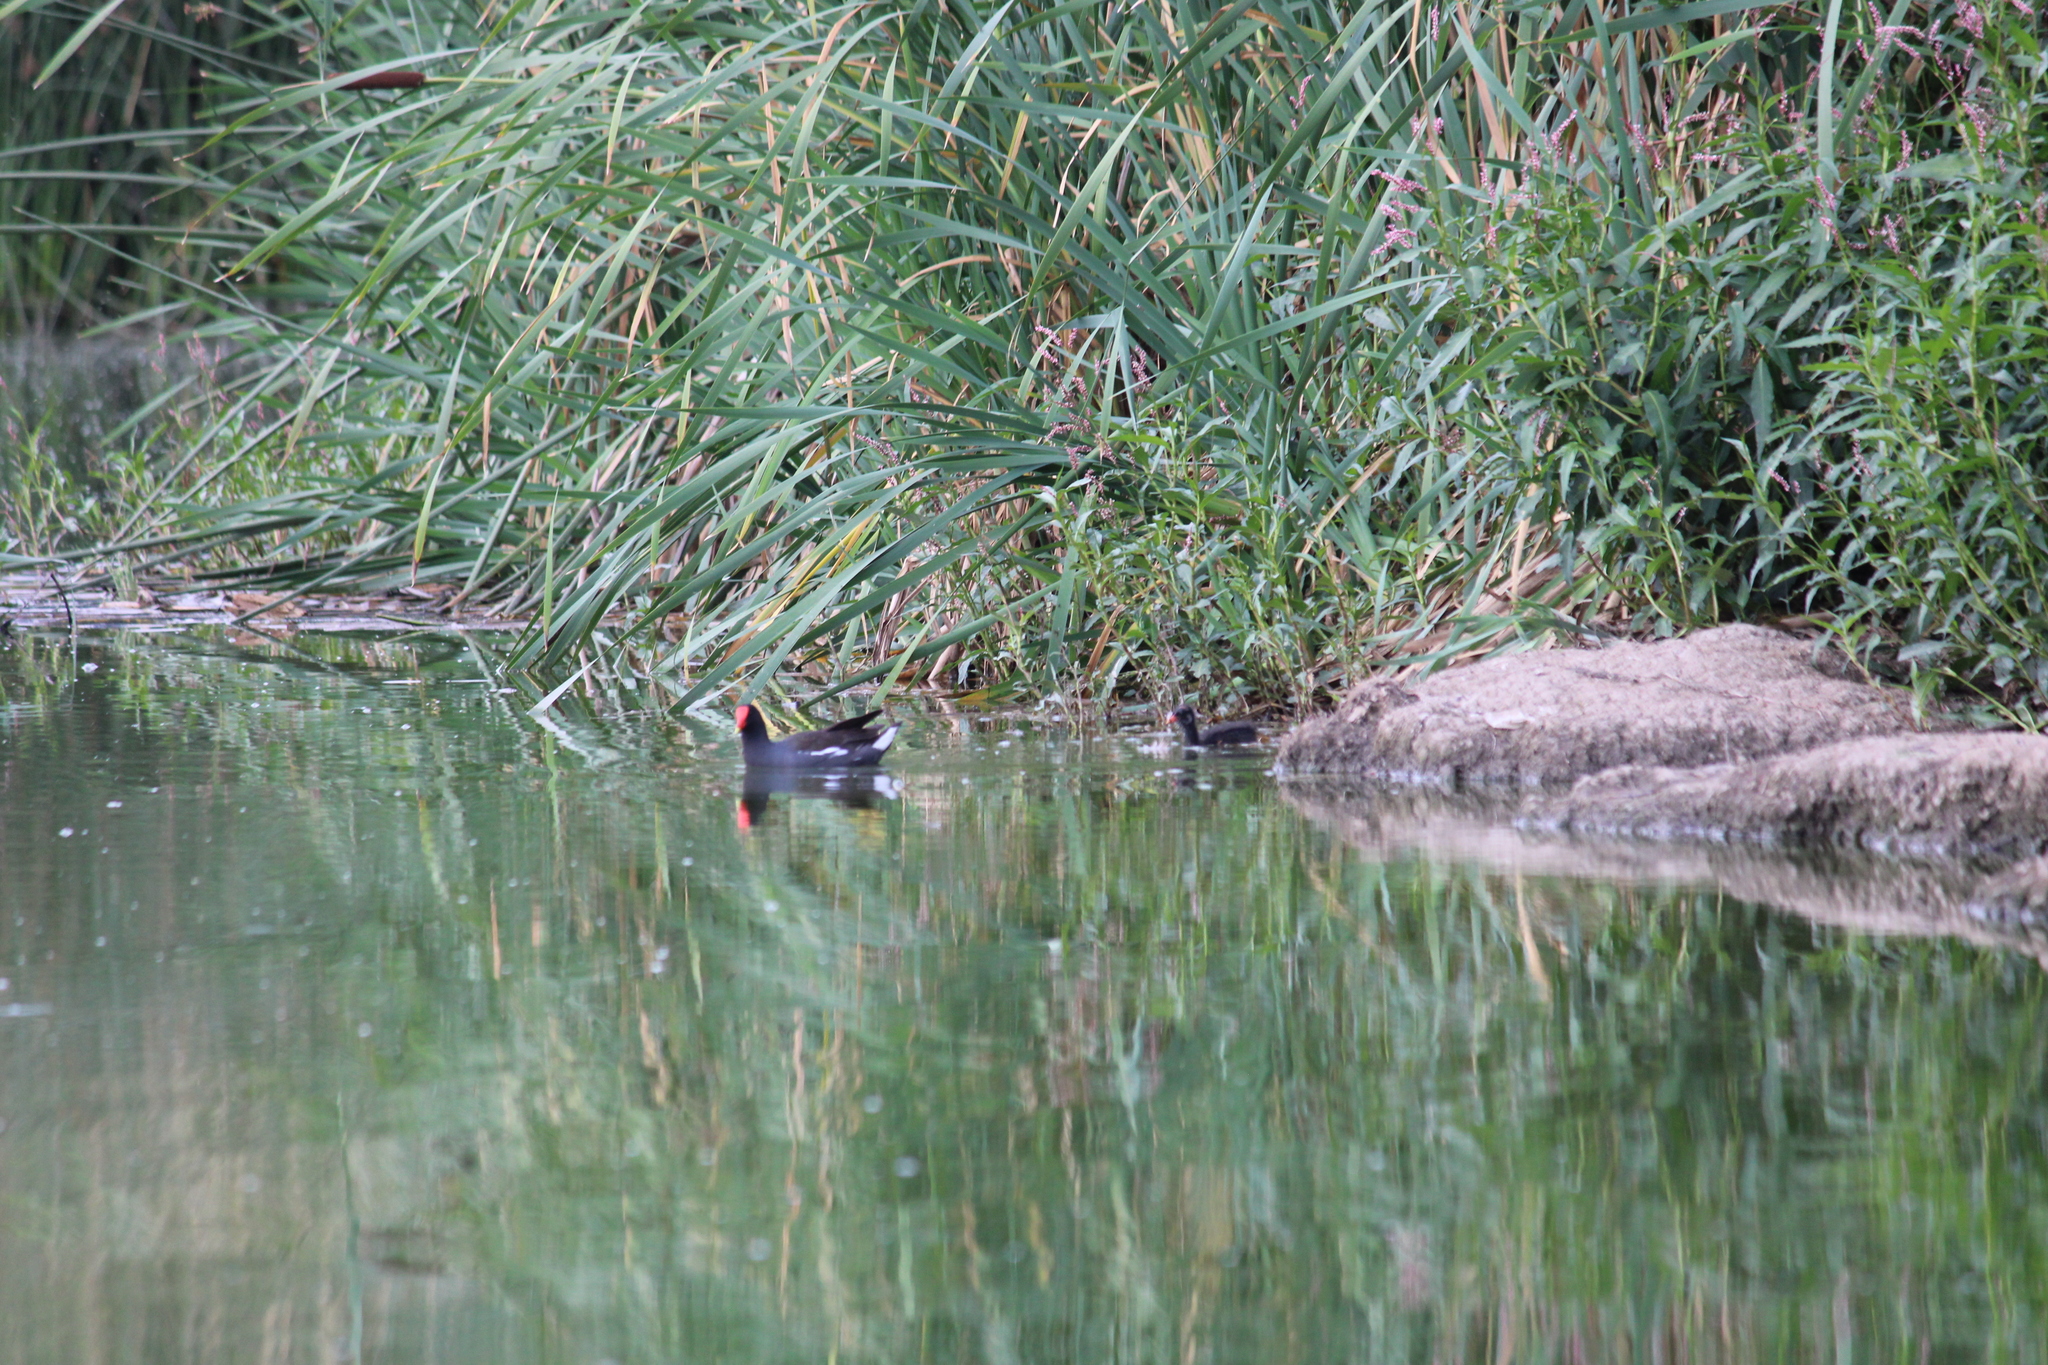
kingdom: Animalia
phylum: Chordata
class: Aves
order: Gruiformes
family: Rallidae
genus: Gallinula
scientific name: Gallinula chloropus
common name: Common moorhen
